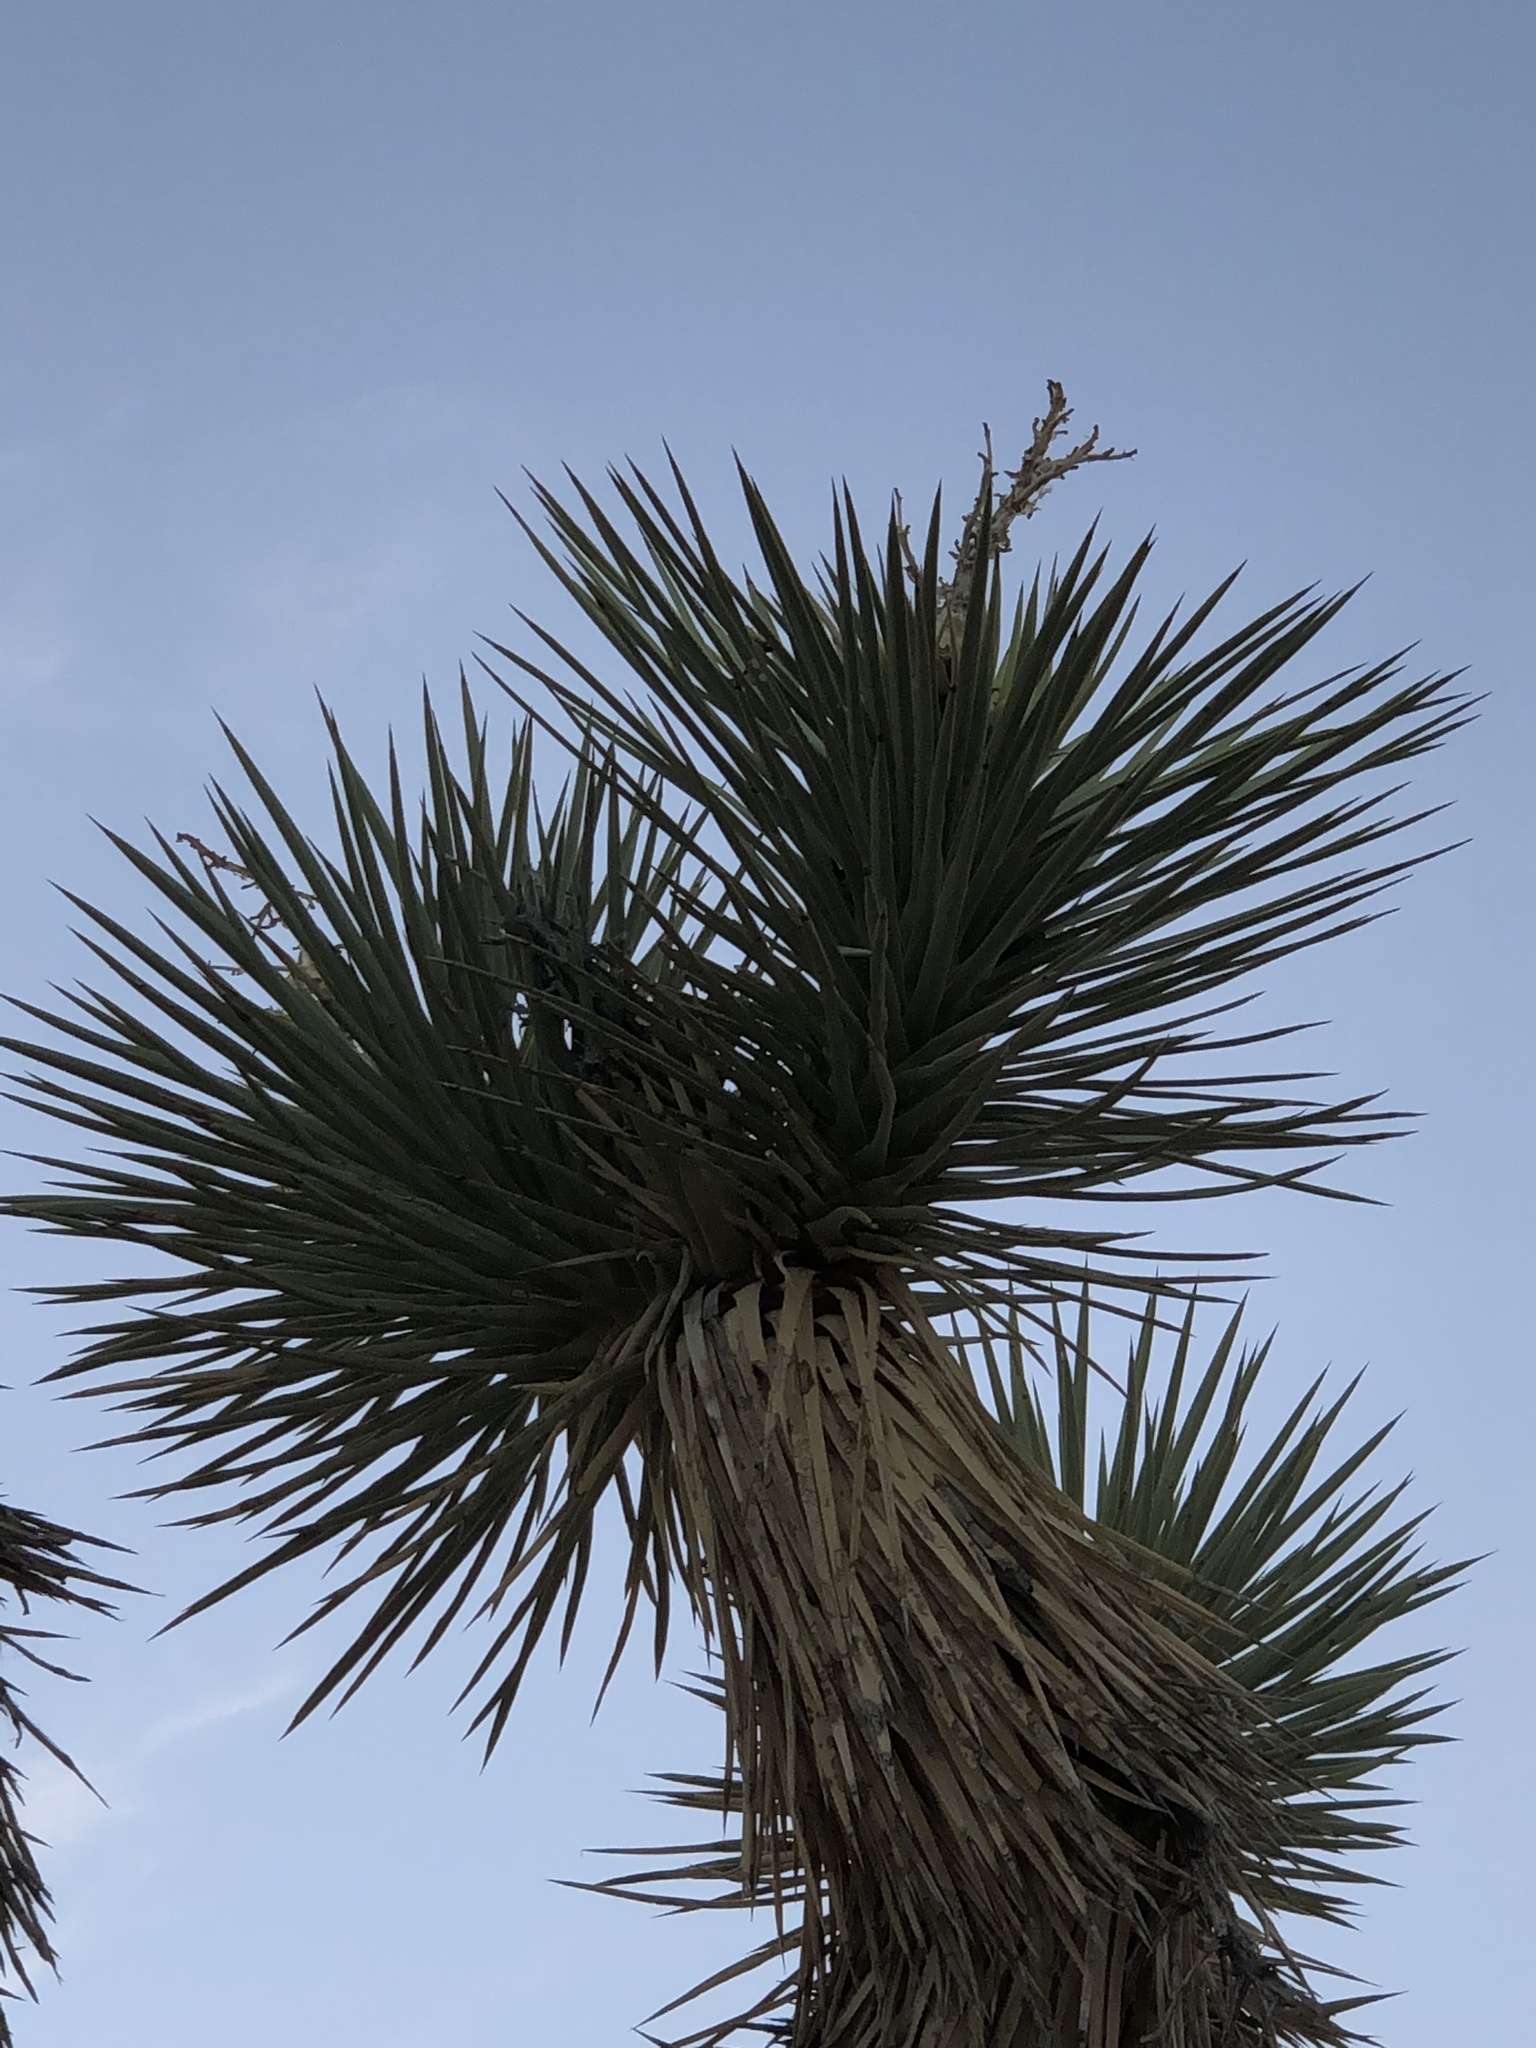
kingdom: Plantae
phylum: Tracheophyta
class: Liliopsida
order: Asparagales
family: Asparagaceae
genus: Yucca
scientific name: Yucca brevifolia
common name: Joshua tree
